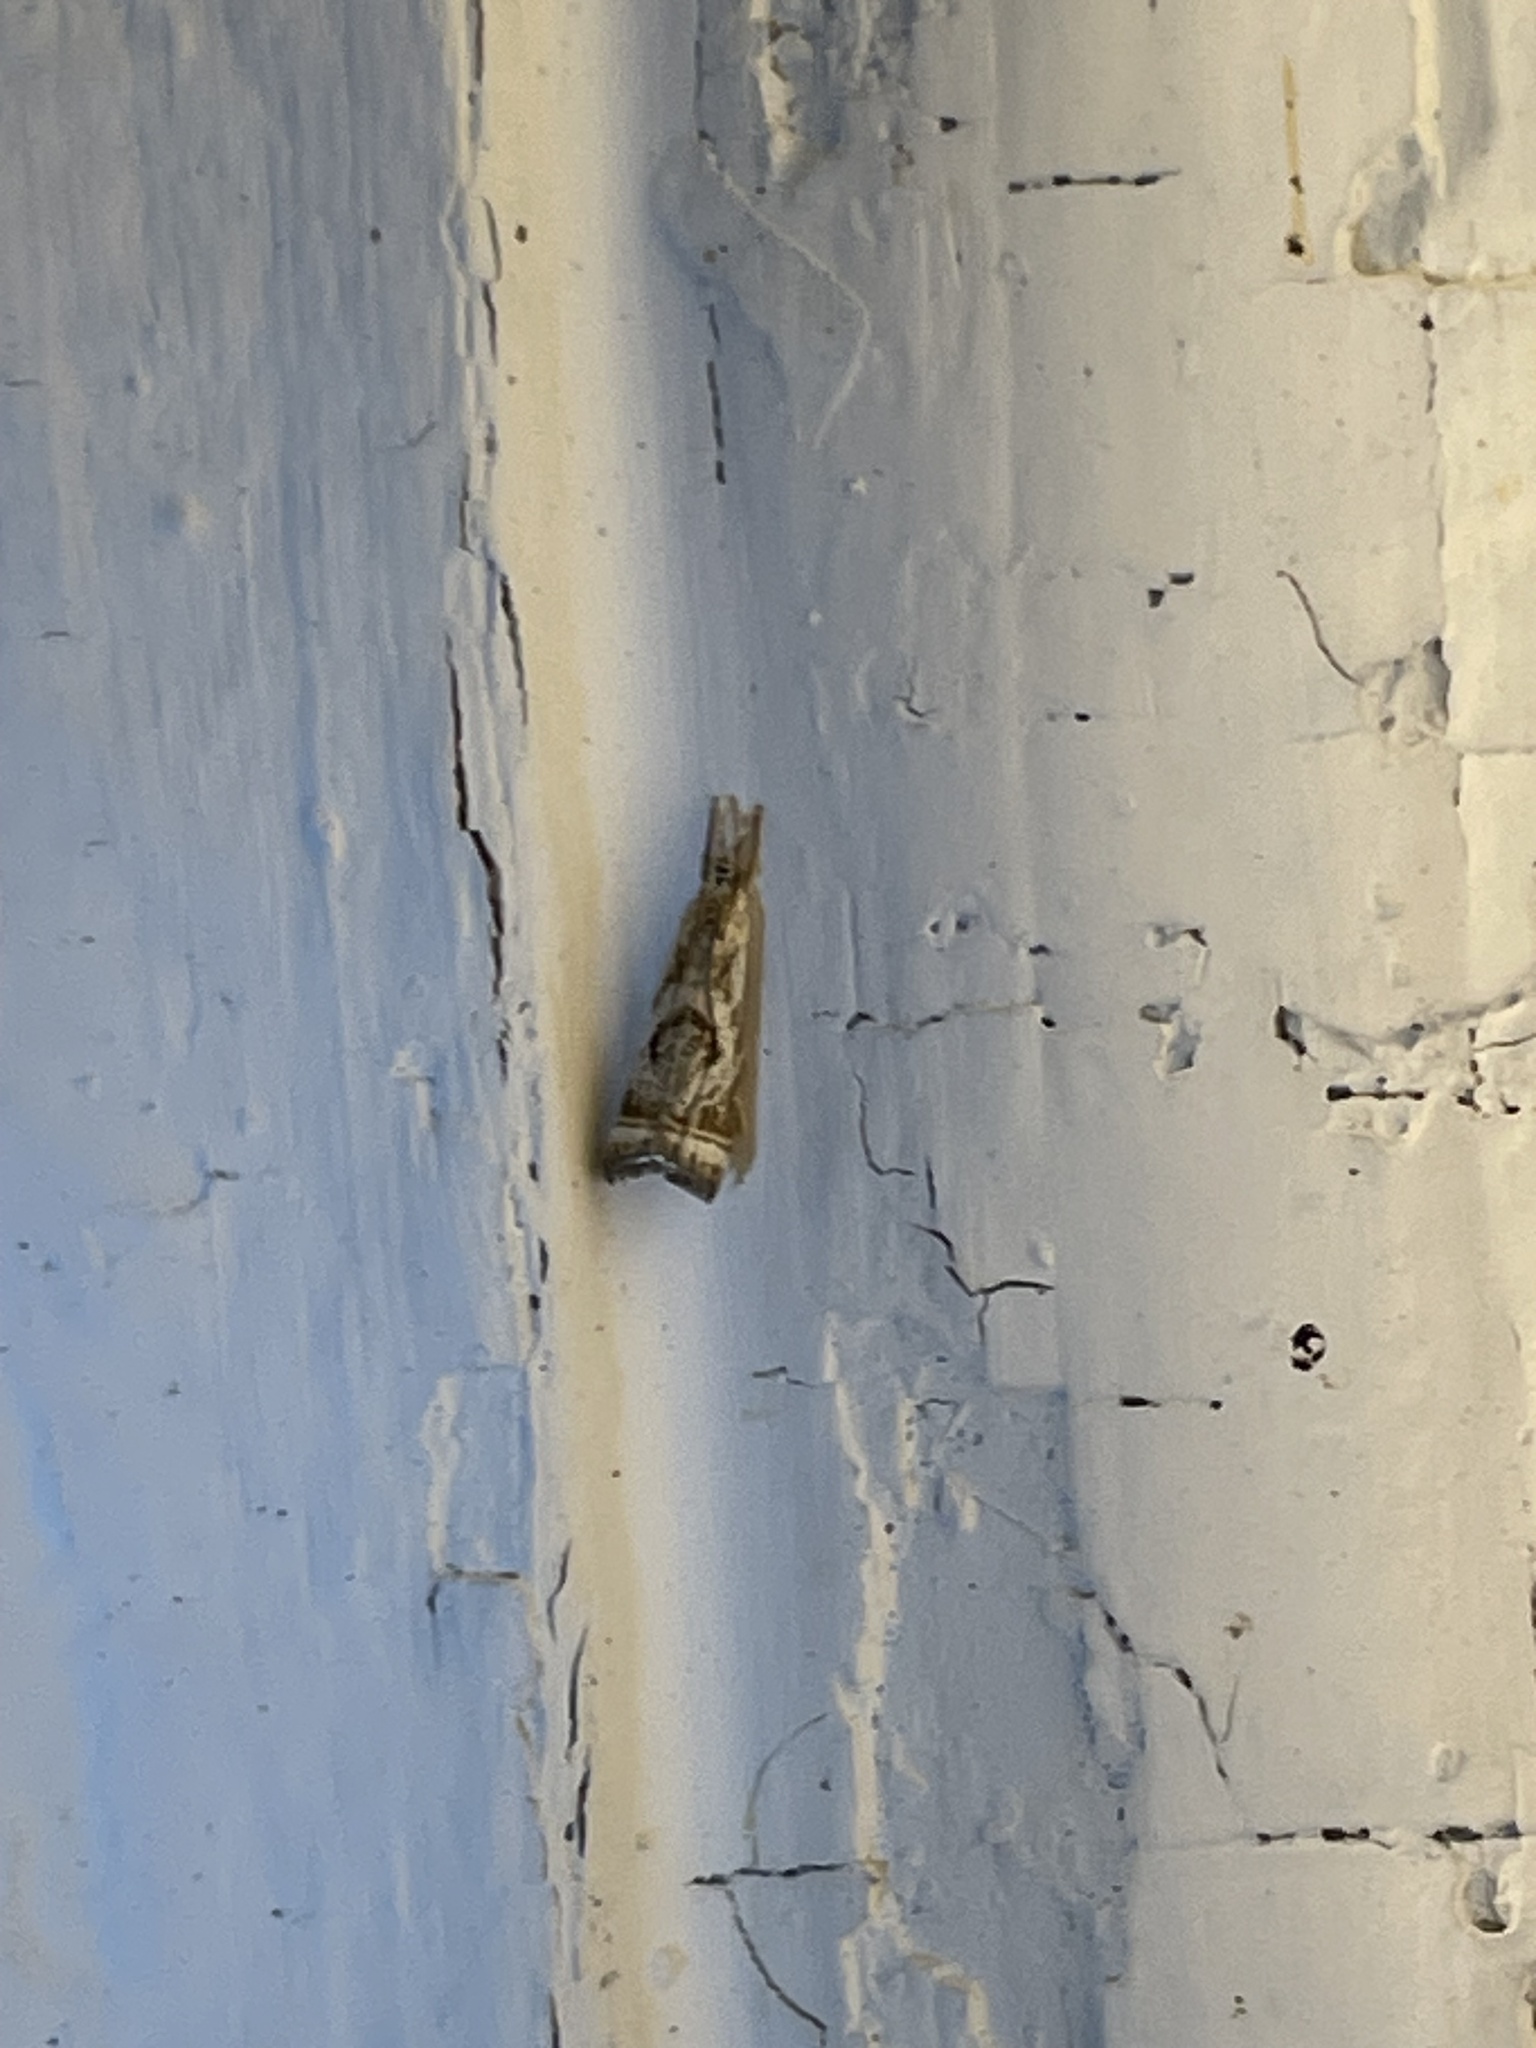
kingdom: Animalia
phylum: Arthropoda
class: Insecta
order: Lepidoptera
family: Crambidae
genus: Microcrambus
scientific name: Microcrambus elegans
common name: Elegant grass-veneer
